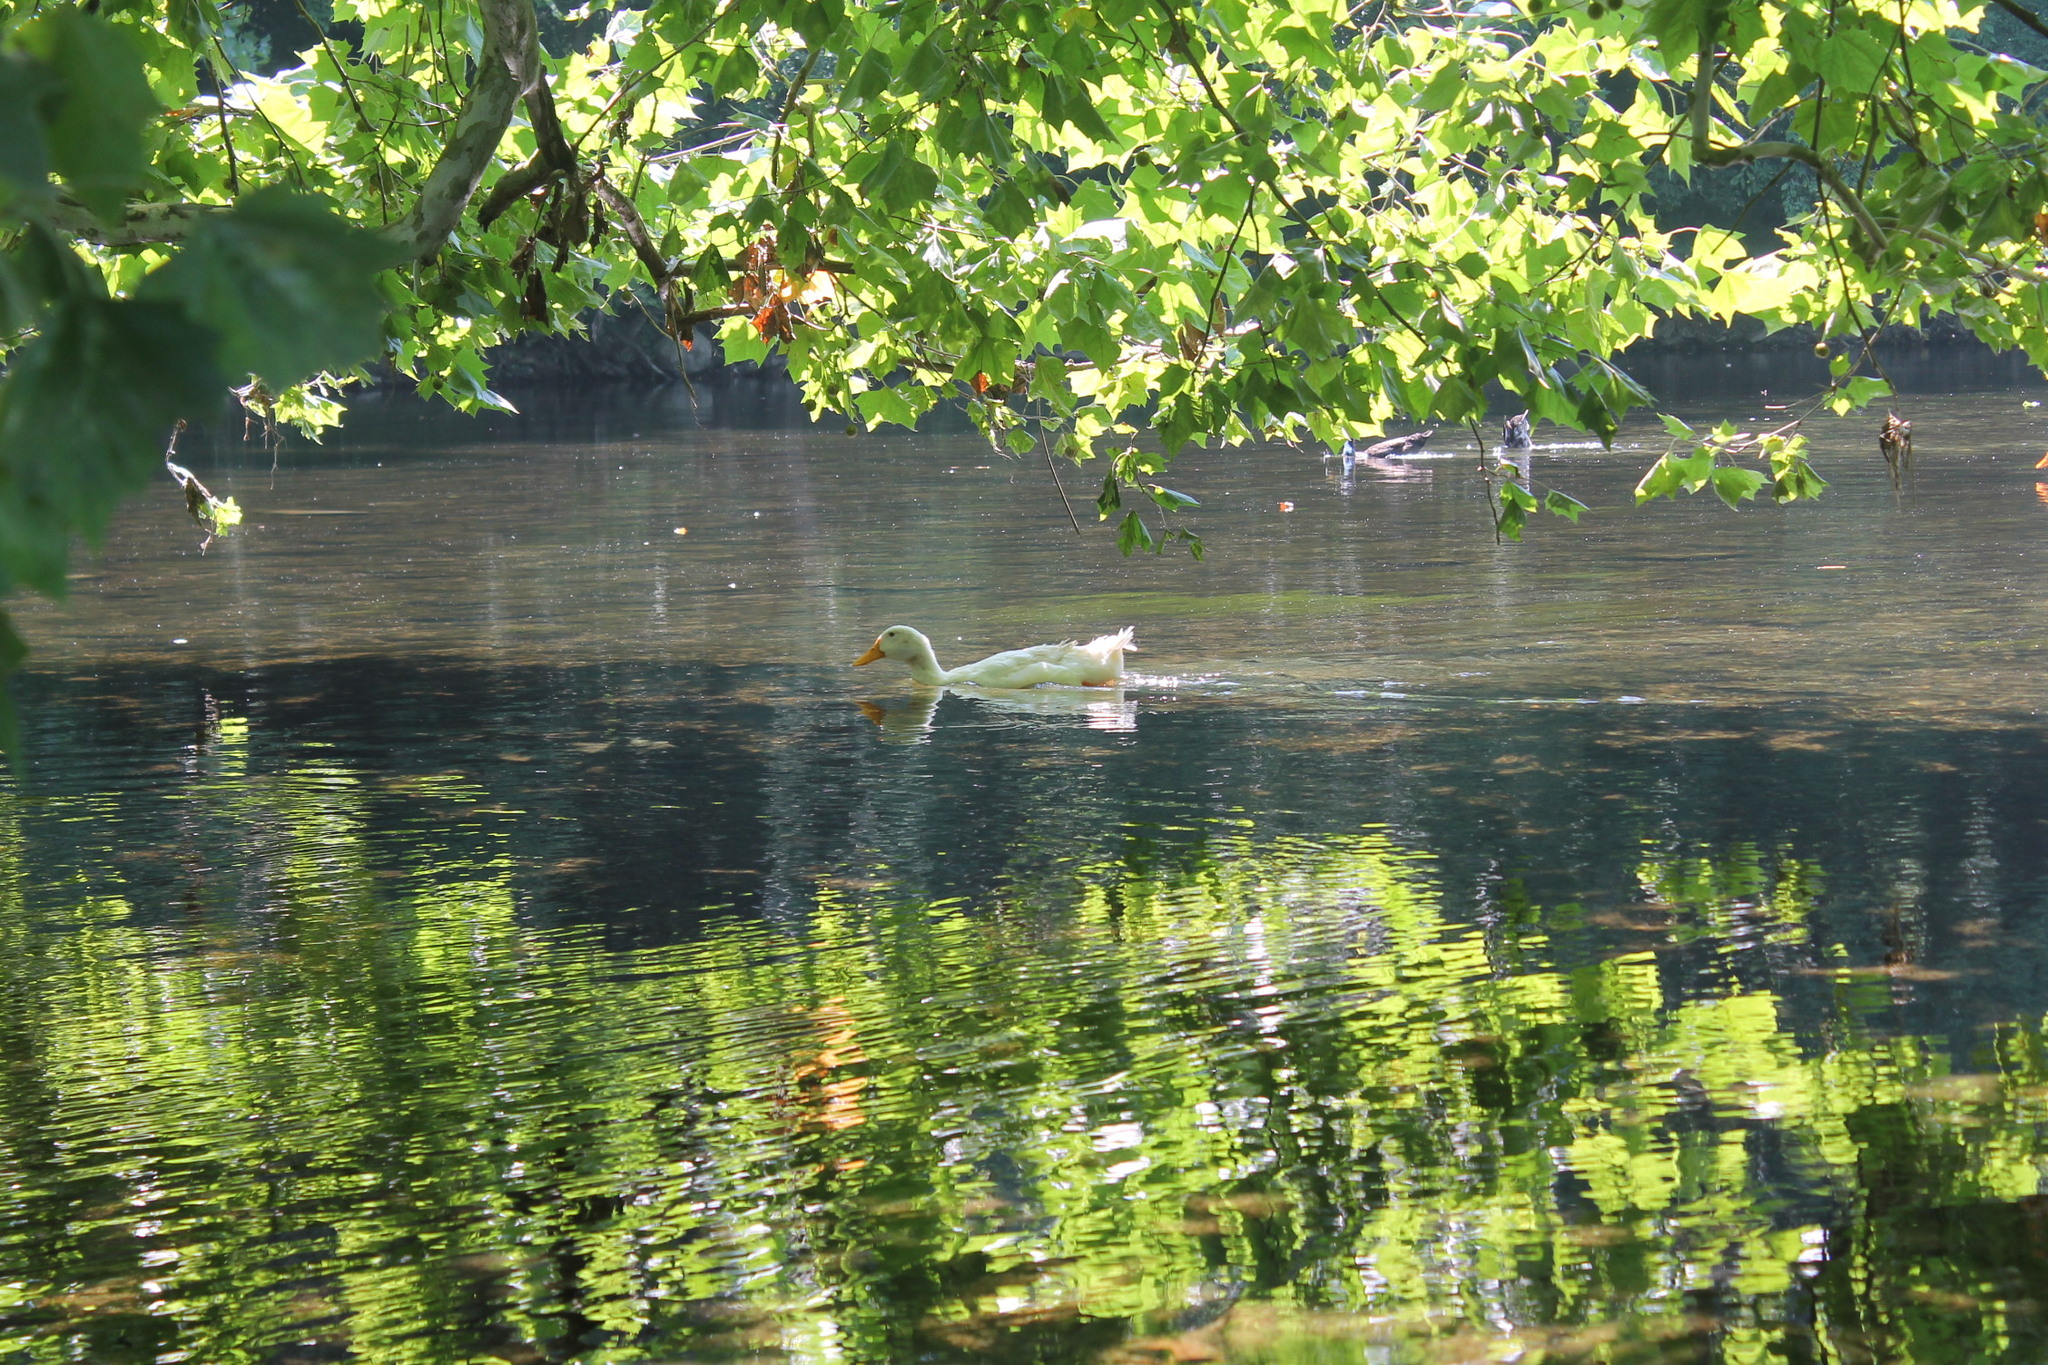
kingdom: Animalia
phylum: Chordata
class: Aves
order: Anseriformes
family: Anatidae
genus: Anas
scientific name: Anas platyrhynchos
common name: Mallard
